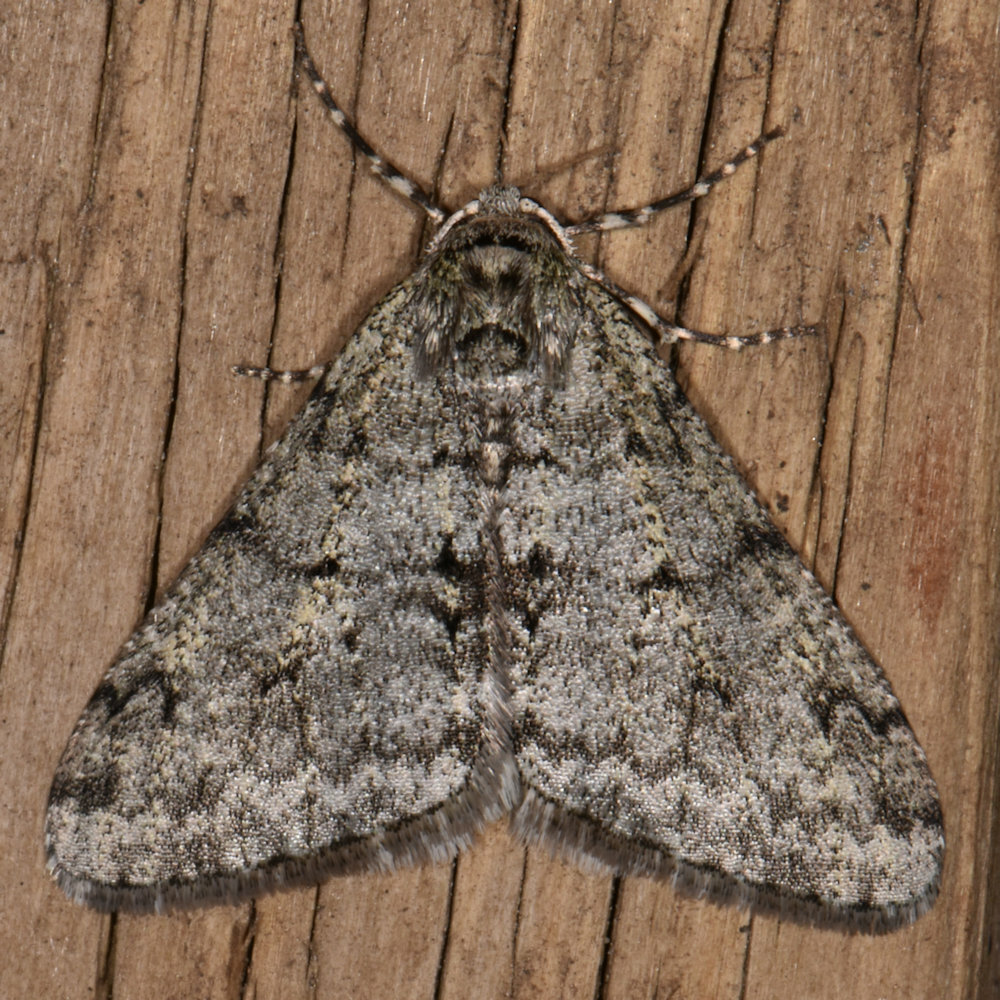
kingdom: Animalia
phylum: Arthropoda
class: Insecta
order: Lepidoptera
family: Geometridae
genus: Phigalia
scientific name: Phigalia strigataria
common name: Small phigalia
